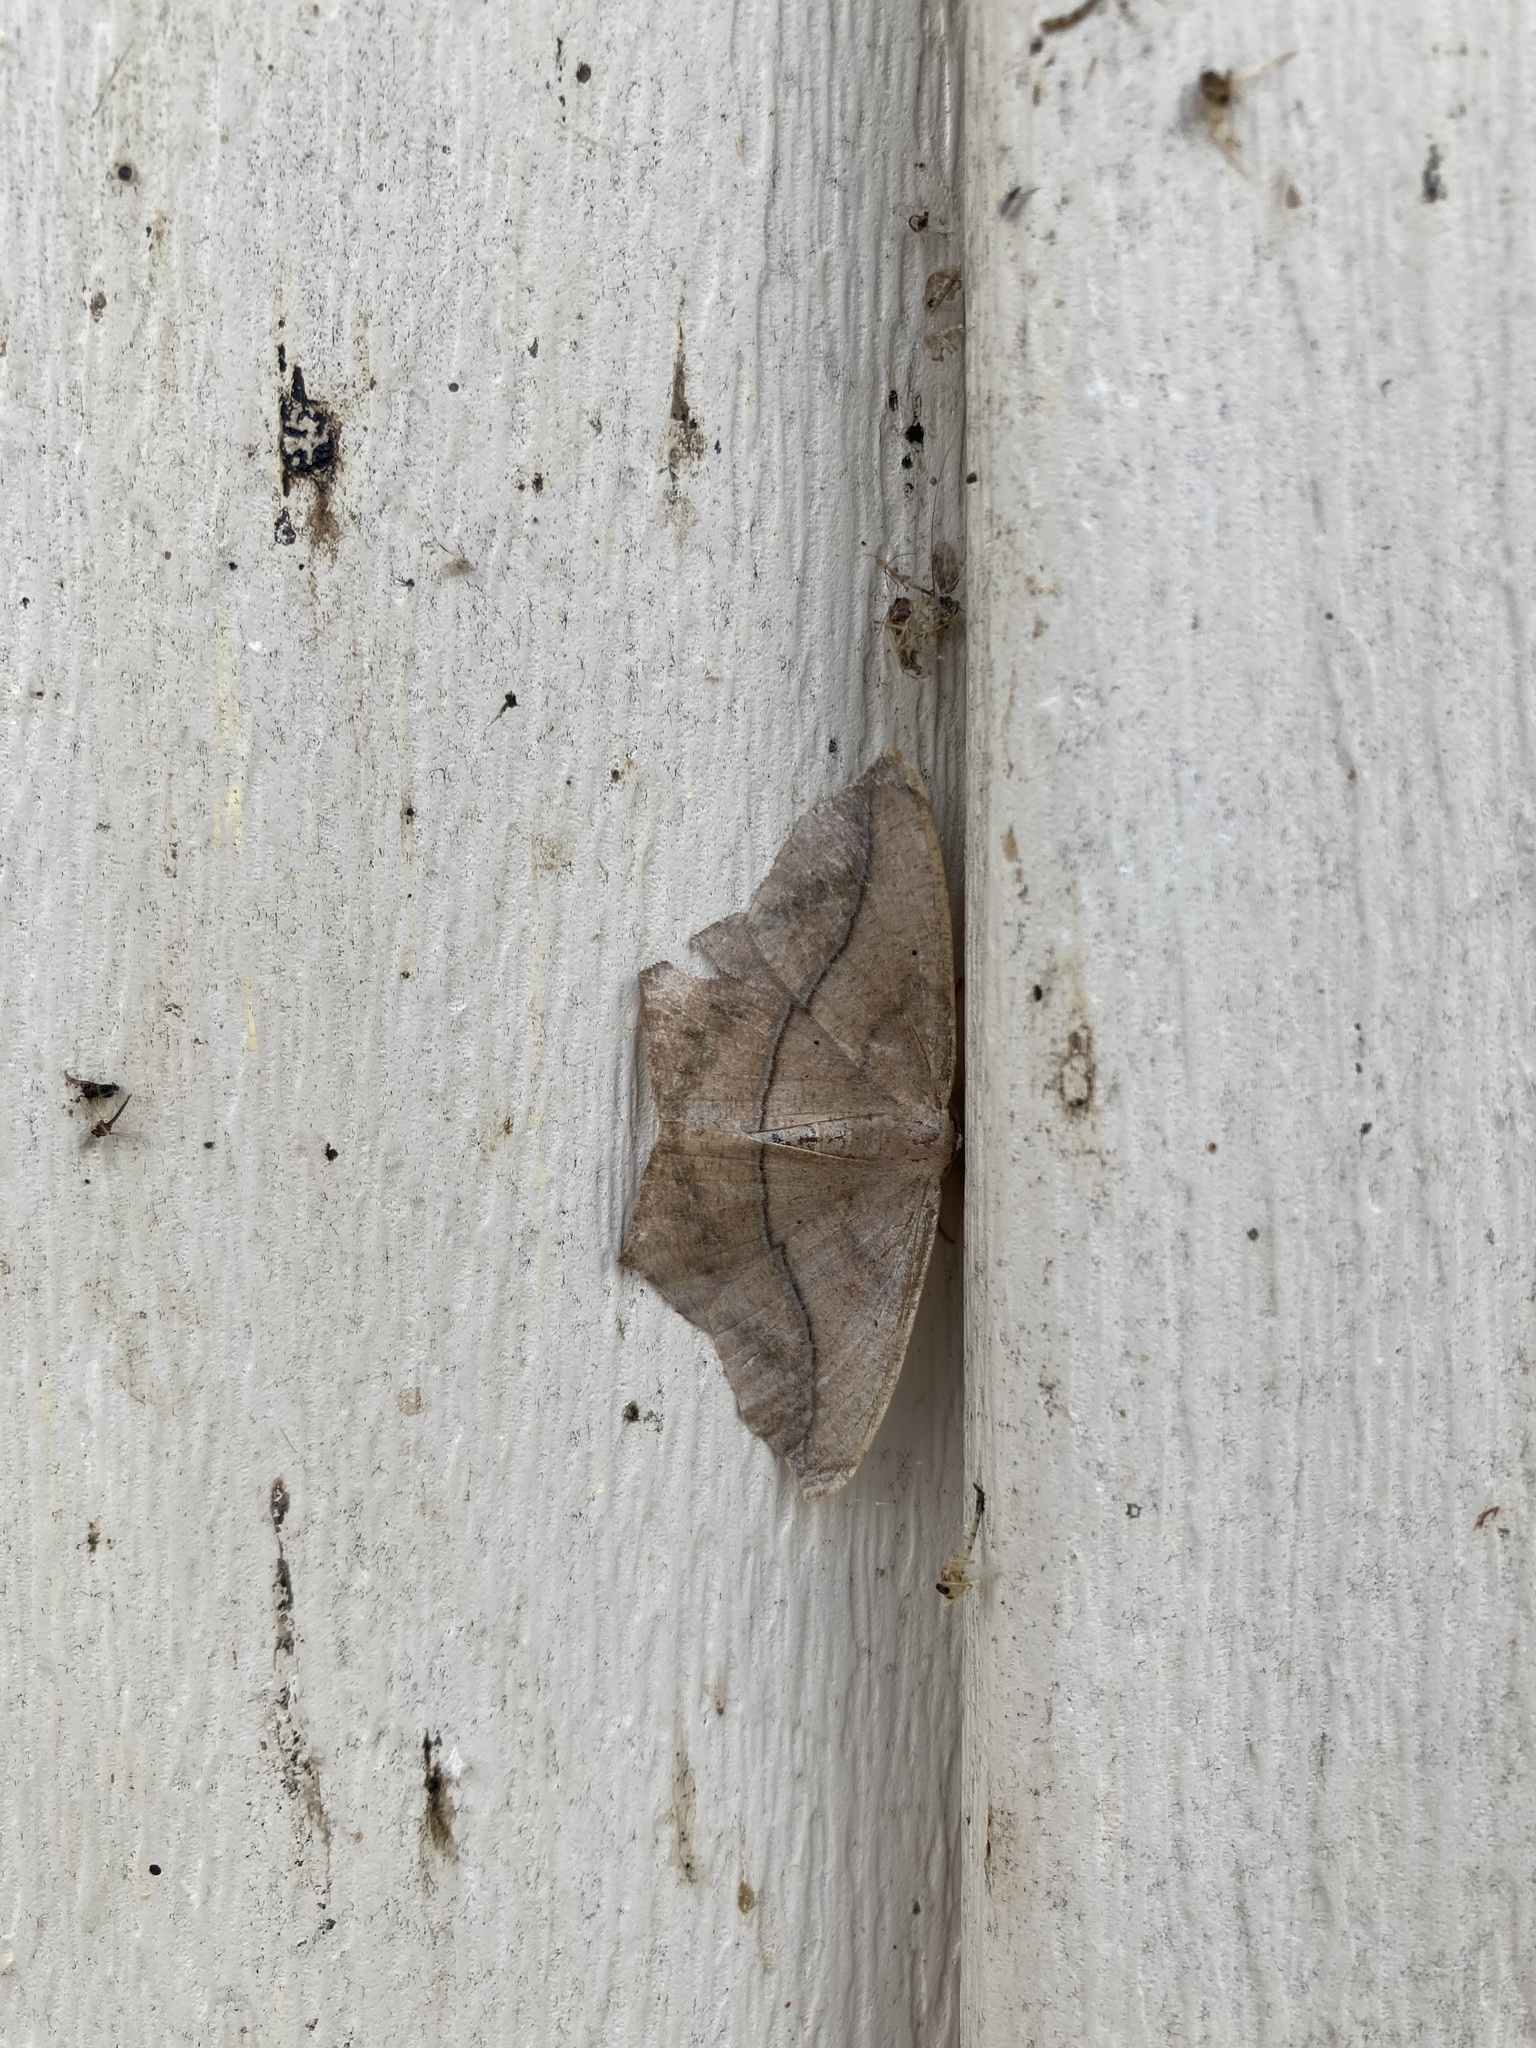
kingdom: Animalia
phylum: Arthropoda
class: Insecta
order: Lepidoptera
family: Geometridae
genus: Prochoerodes
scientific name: Prochoerodes lineola
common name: Large maple spanworm
